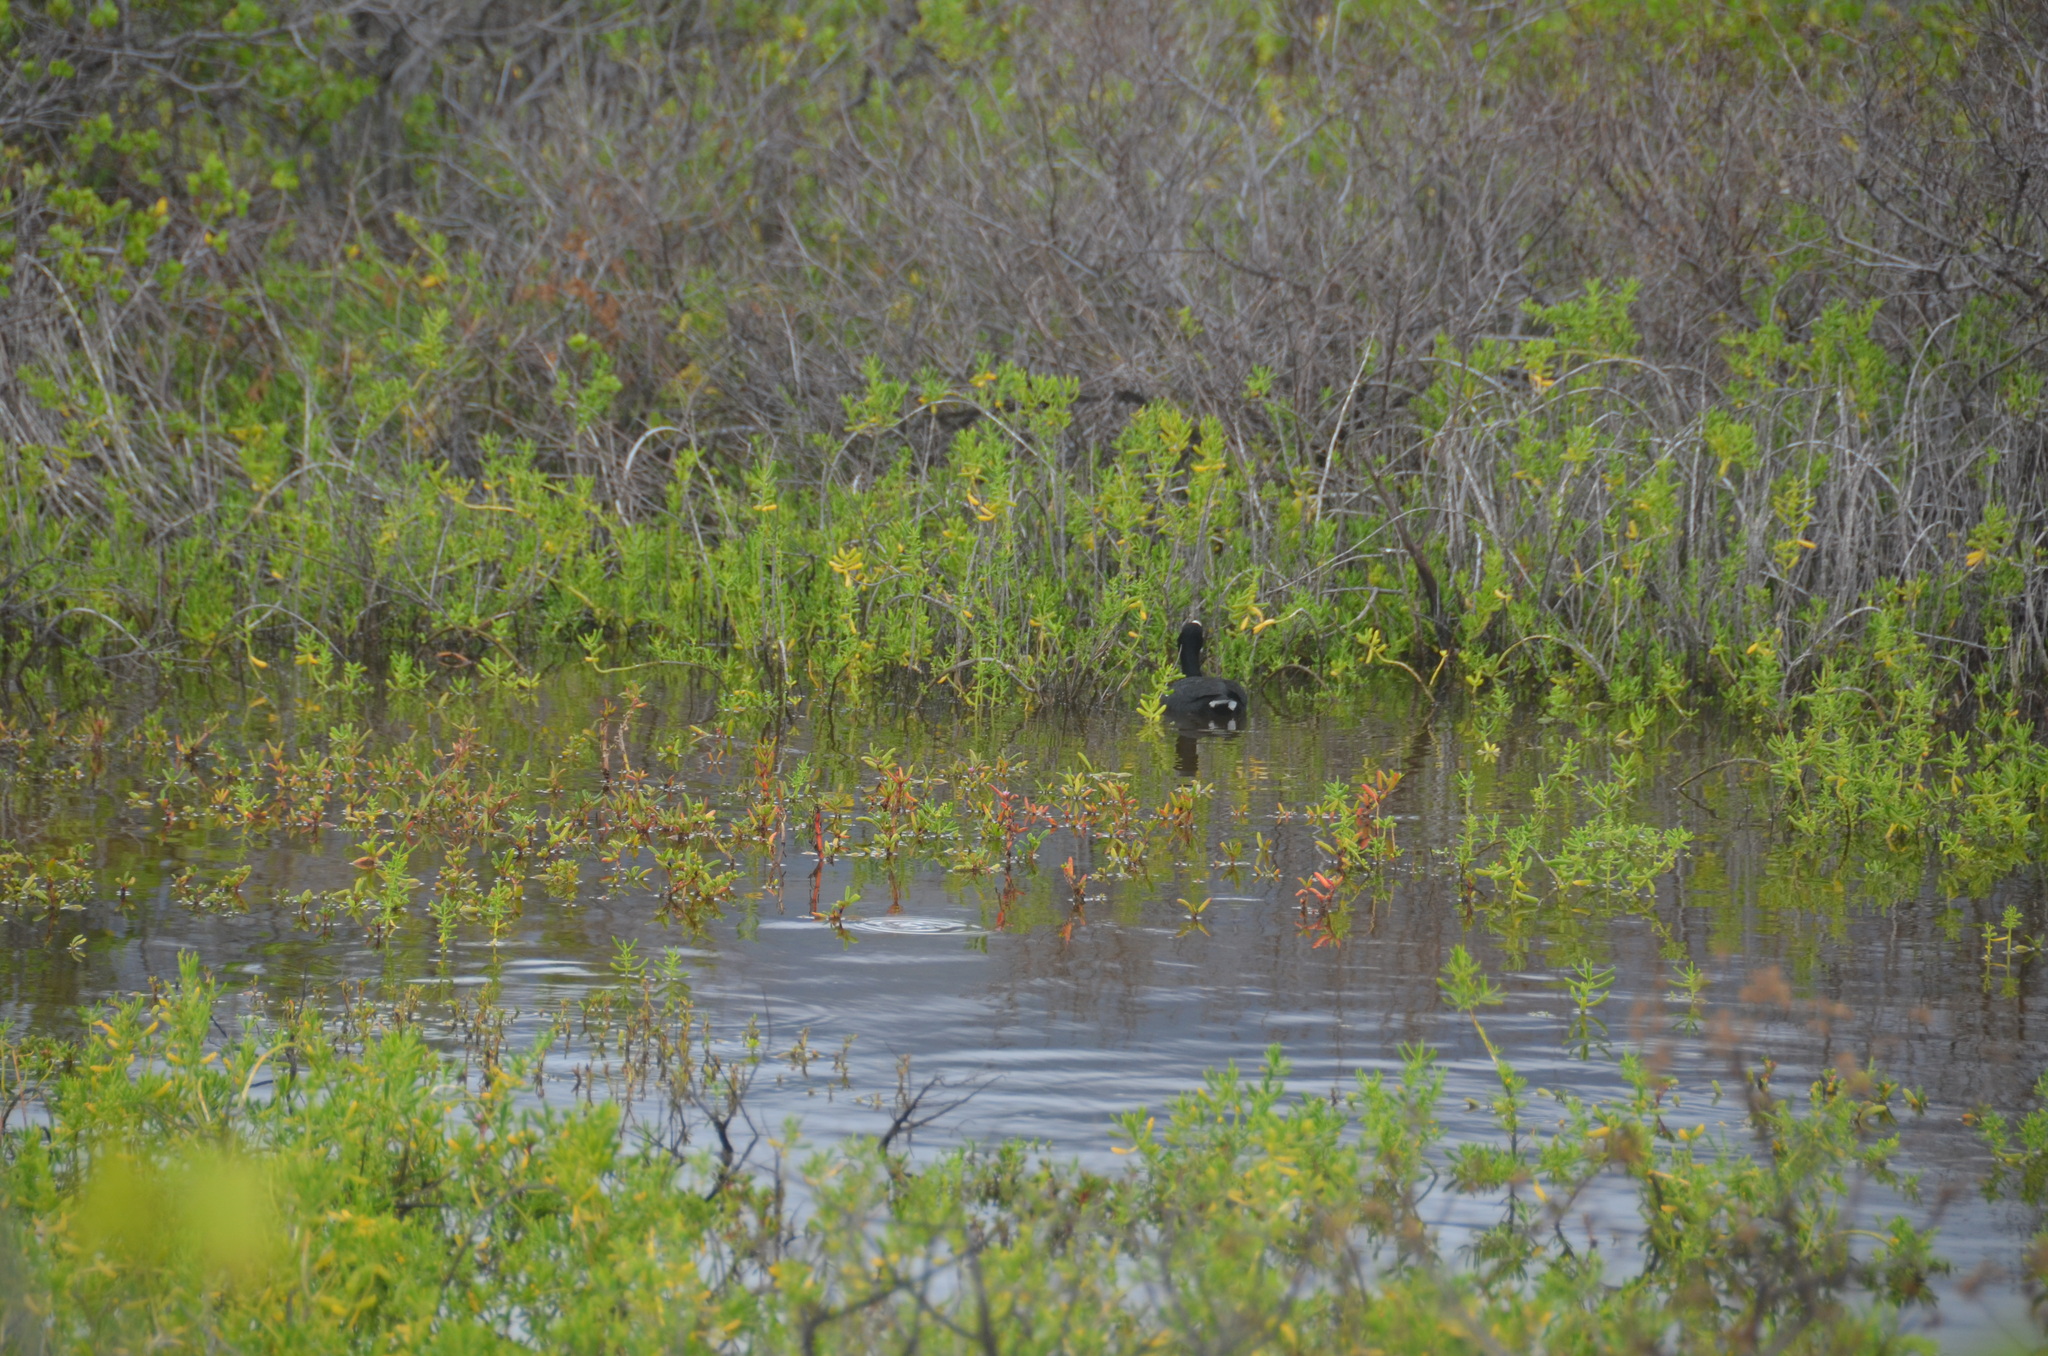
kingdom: Animalia
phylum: Chordata
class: Aves
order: Gruiformes
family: Rallidae
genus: Fulica
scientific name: Fulica alai
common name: Hawaiian coot
